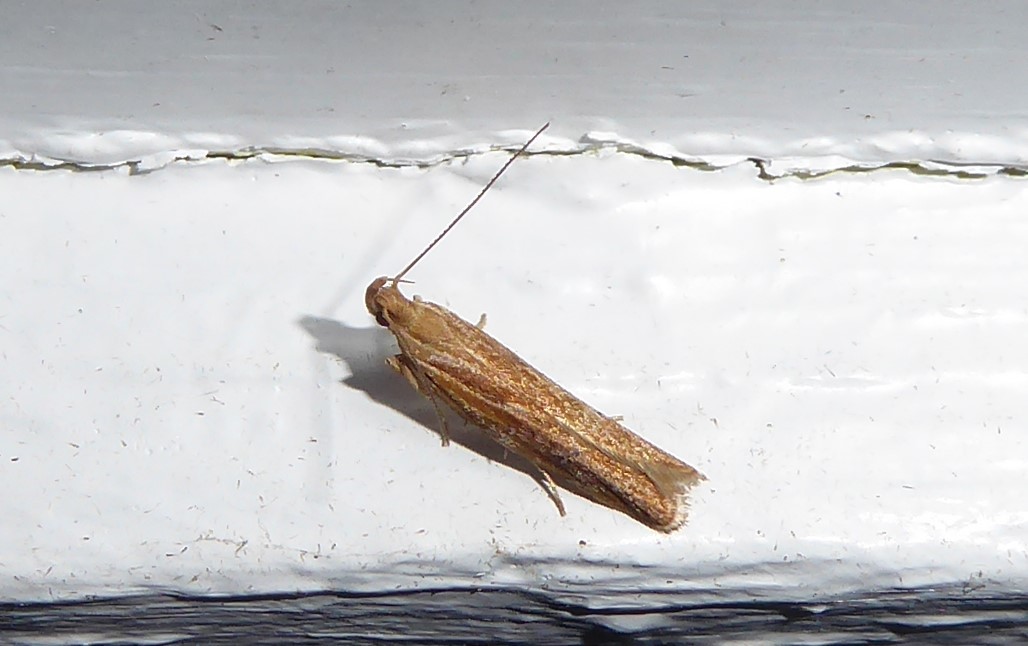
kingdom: Animalia
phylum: Arthropoda
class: Insecta
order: Lepidoptera
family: Depressariidae
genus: Eutorna
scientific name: Eutorna symmorpha
